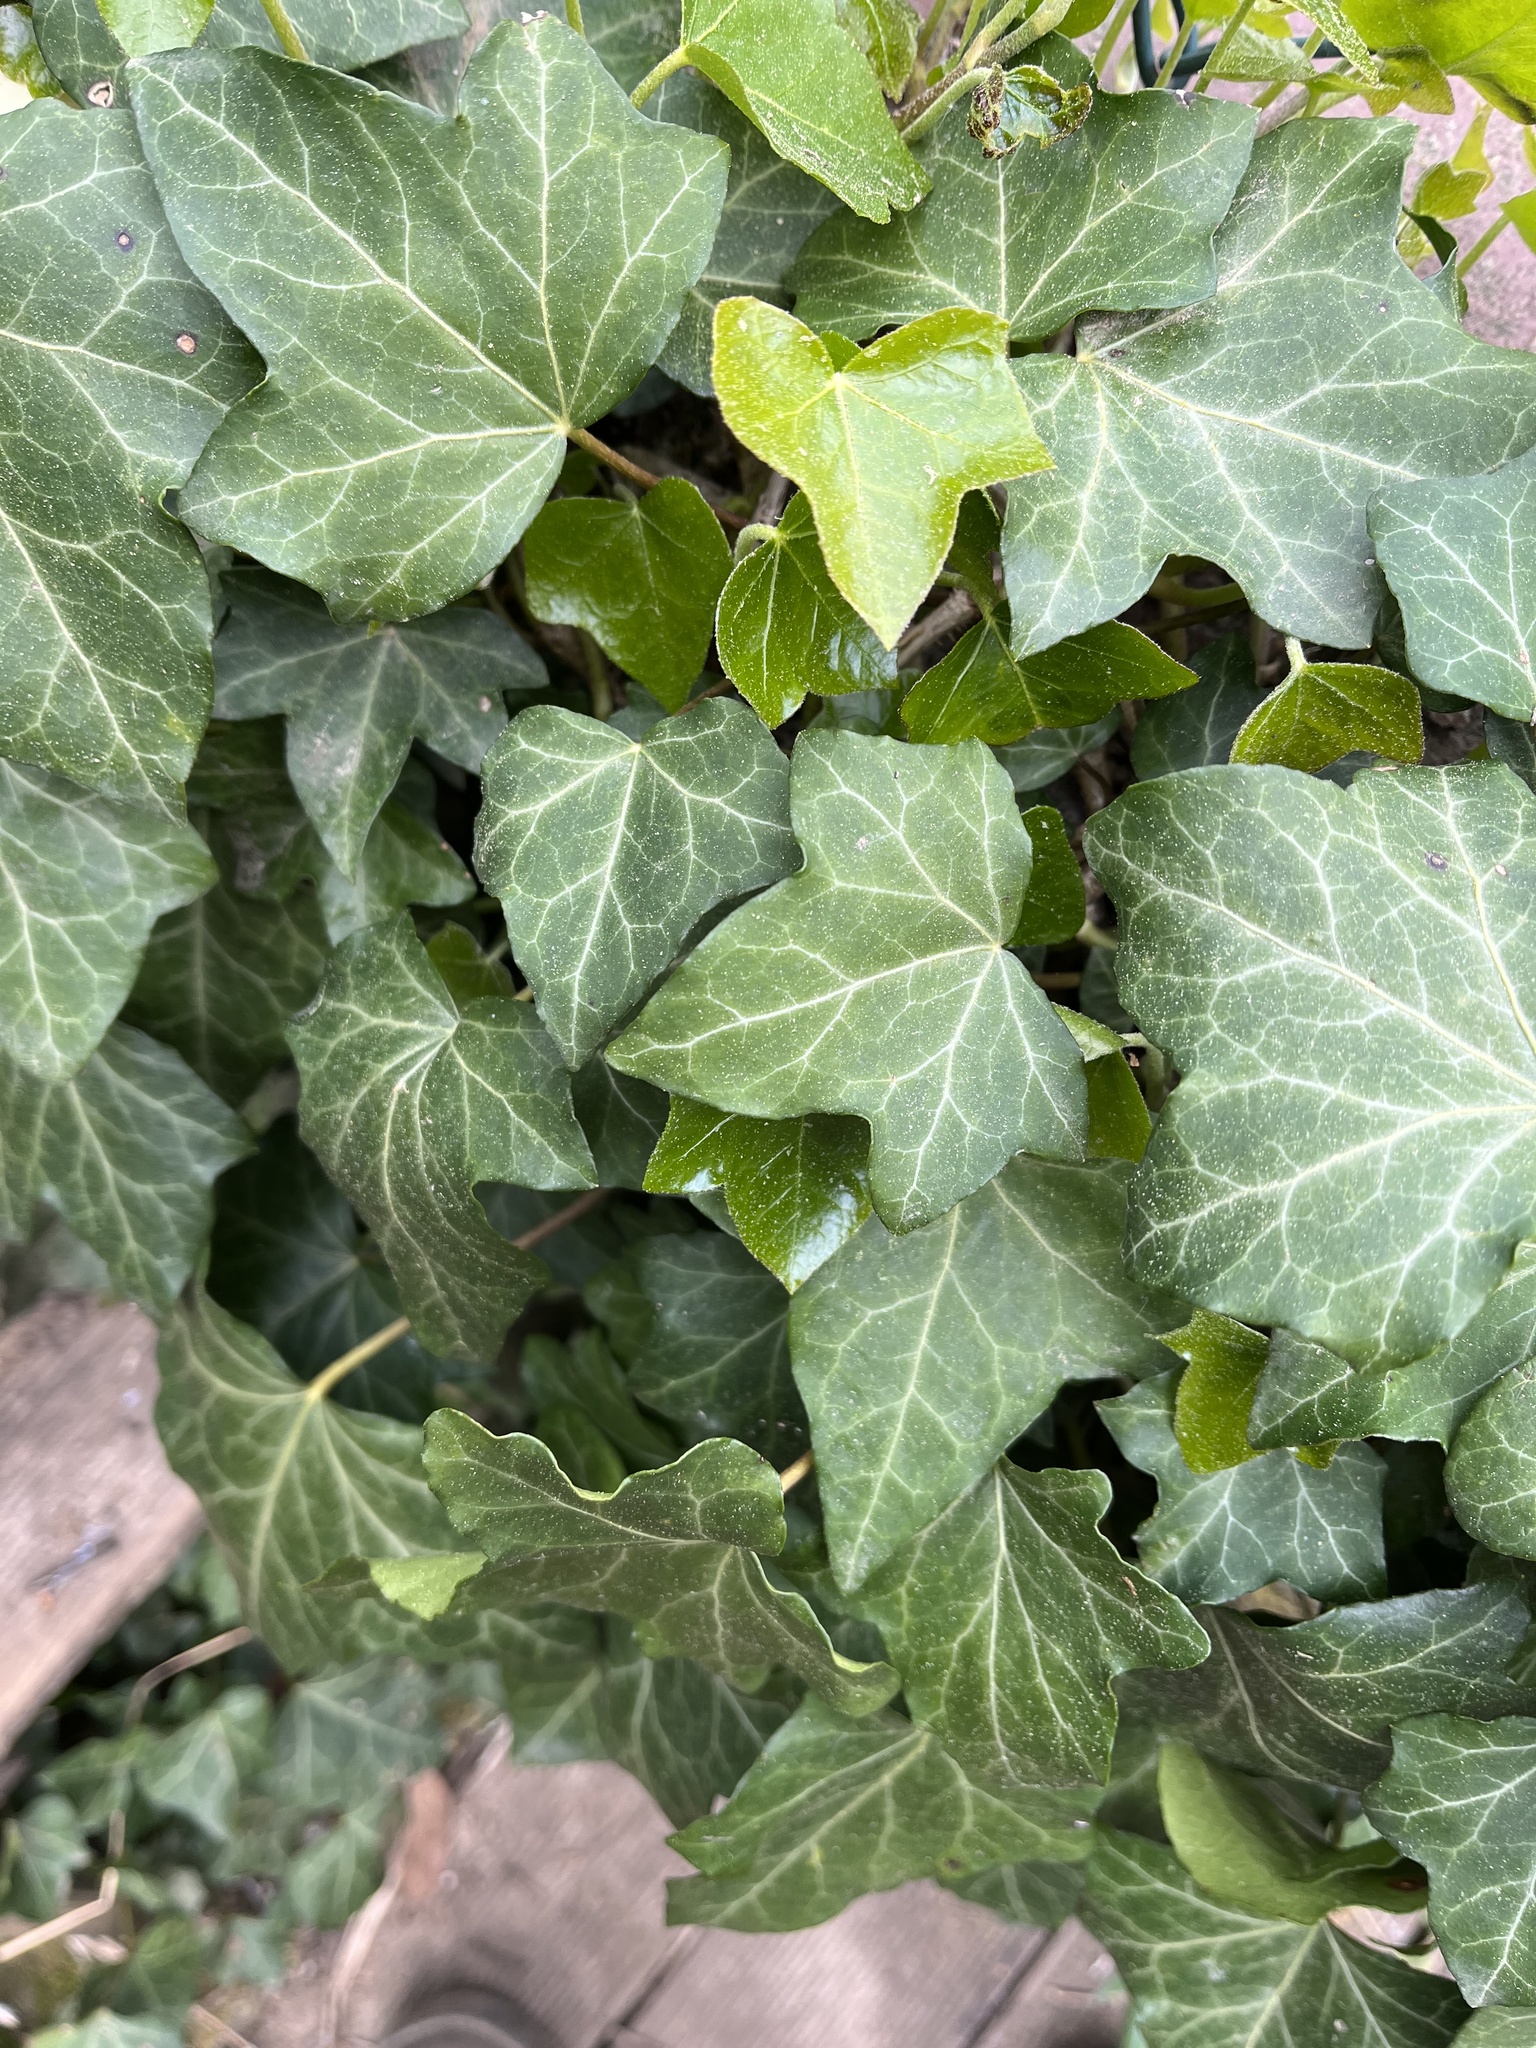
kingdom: Plantae
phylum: Tracheophyta
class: Magnoliopsida
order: Apiales
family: Araliaceae
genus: Hedera
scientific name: Hedera helix
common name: Ivy
